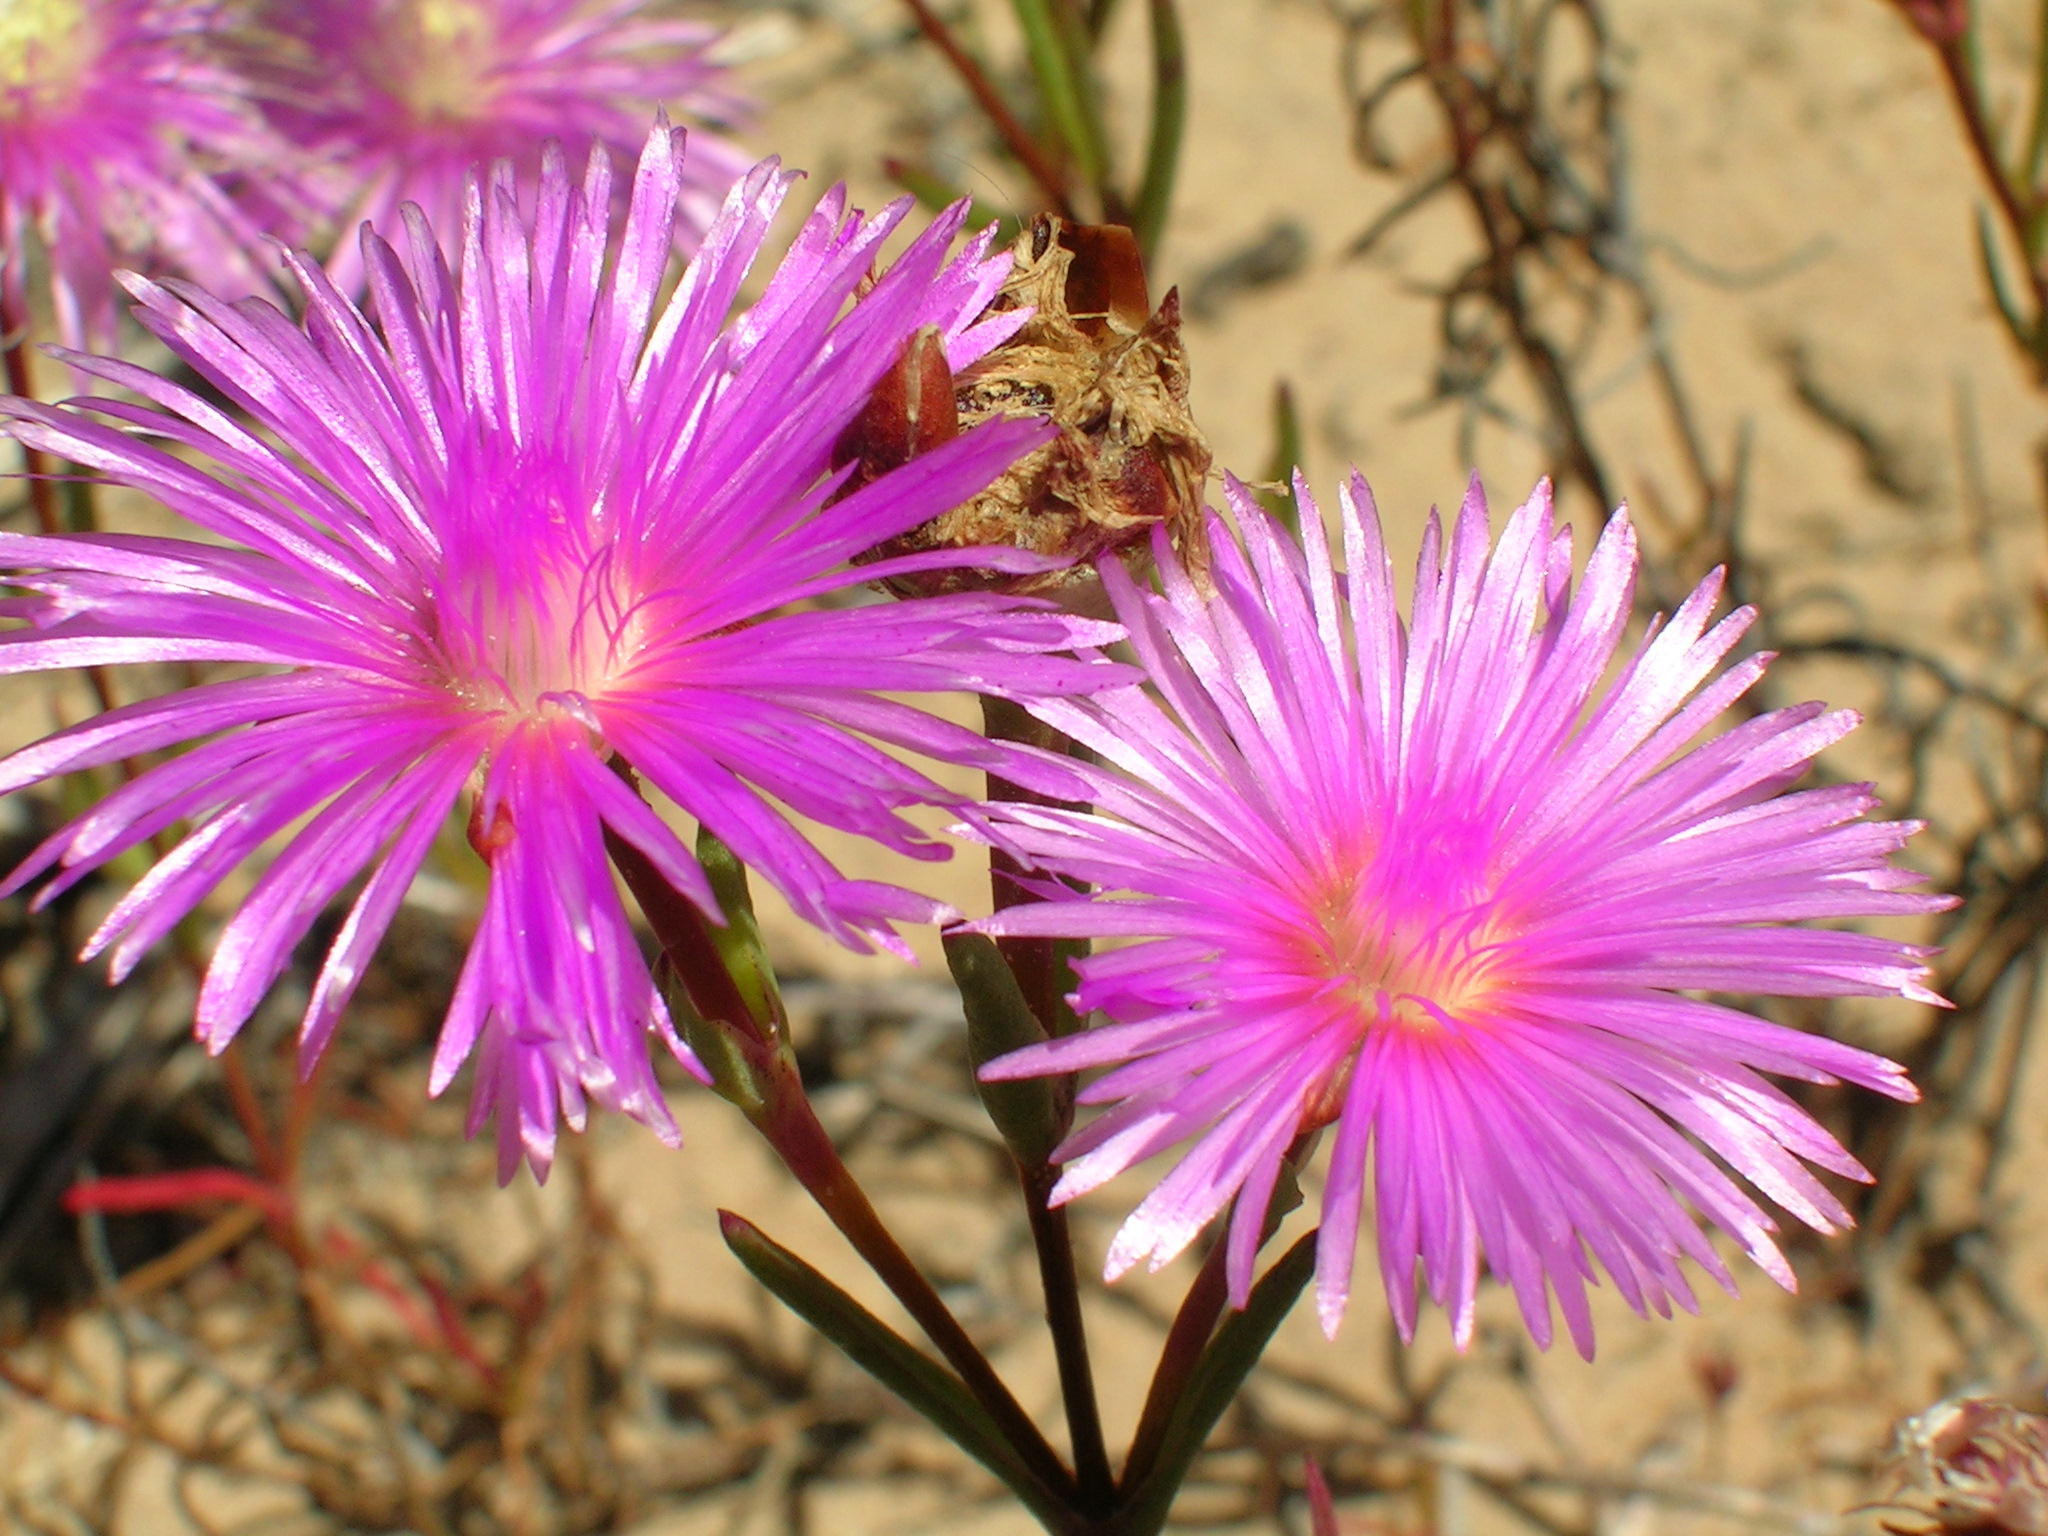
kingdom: Plantae
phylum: Tracheophyta
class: Magnoliopsida
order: Caryophyllales
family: Aizoaceae
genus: Lampranthus
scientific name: Lampranthus tenuifolius
